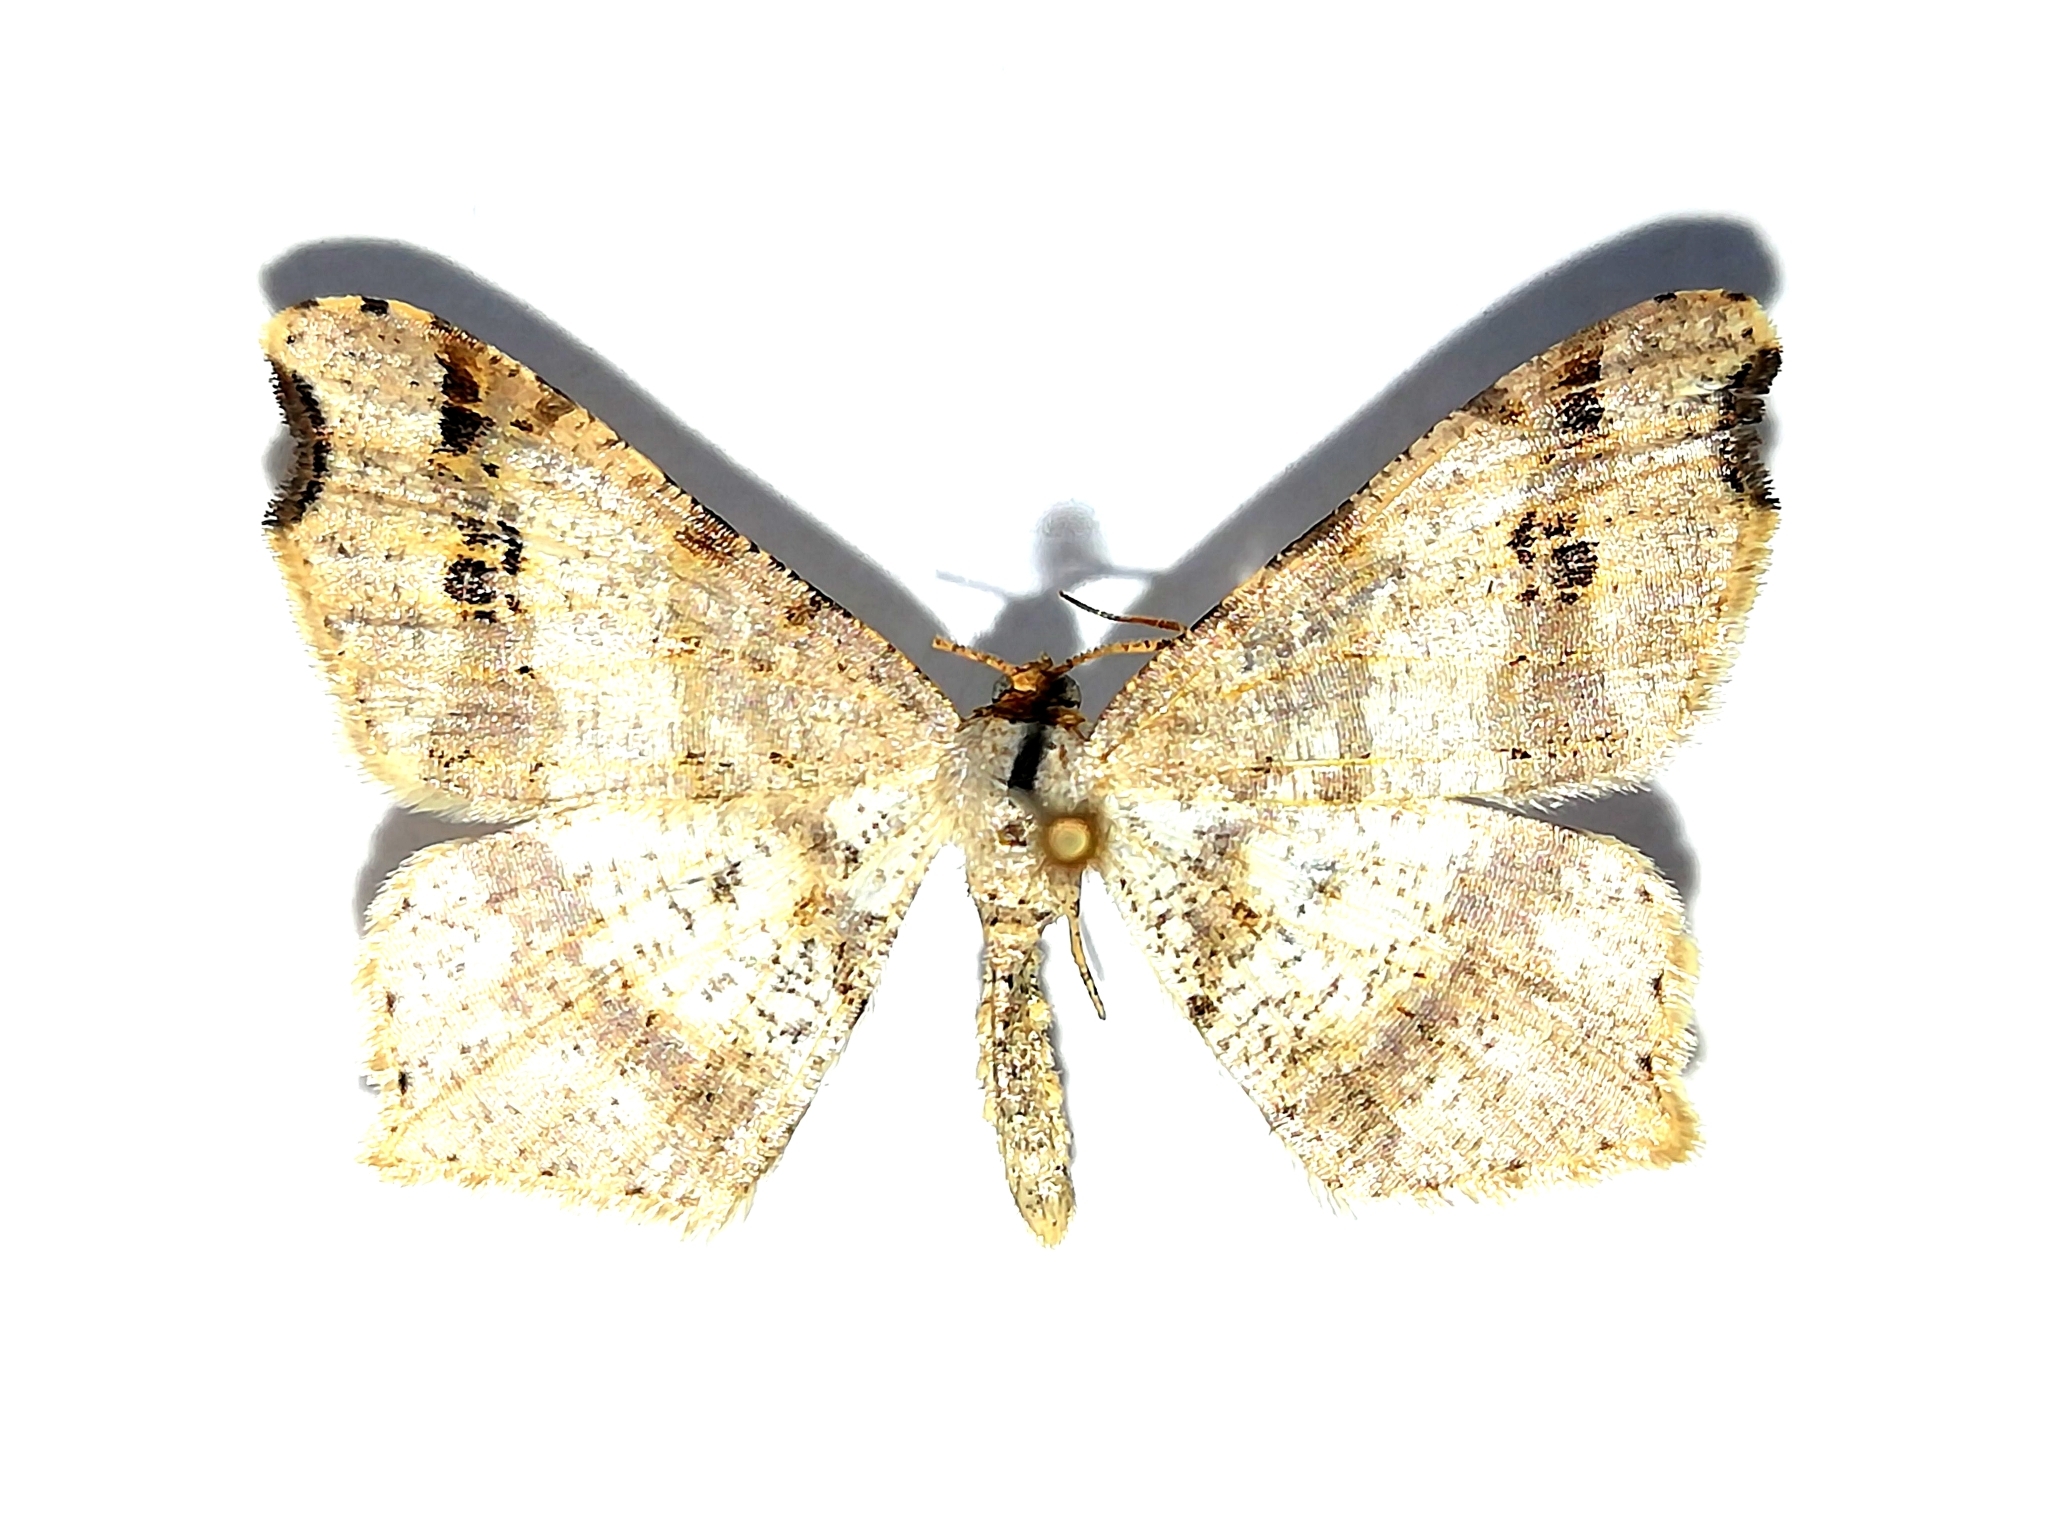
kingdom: Animalia
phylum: Arthropoda
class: Insecta
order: Lepidoptera
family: Geometridae
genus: Macaria
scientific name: Macaria alternata
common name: Sharp-angled peacock
